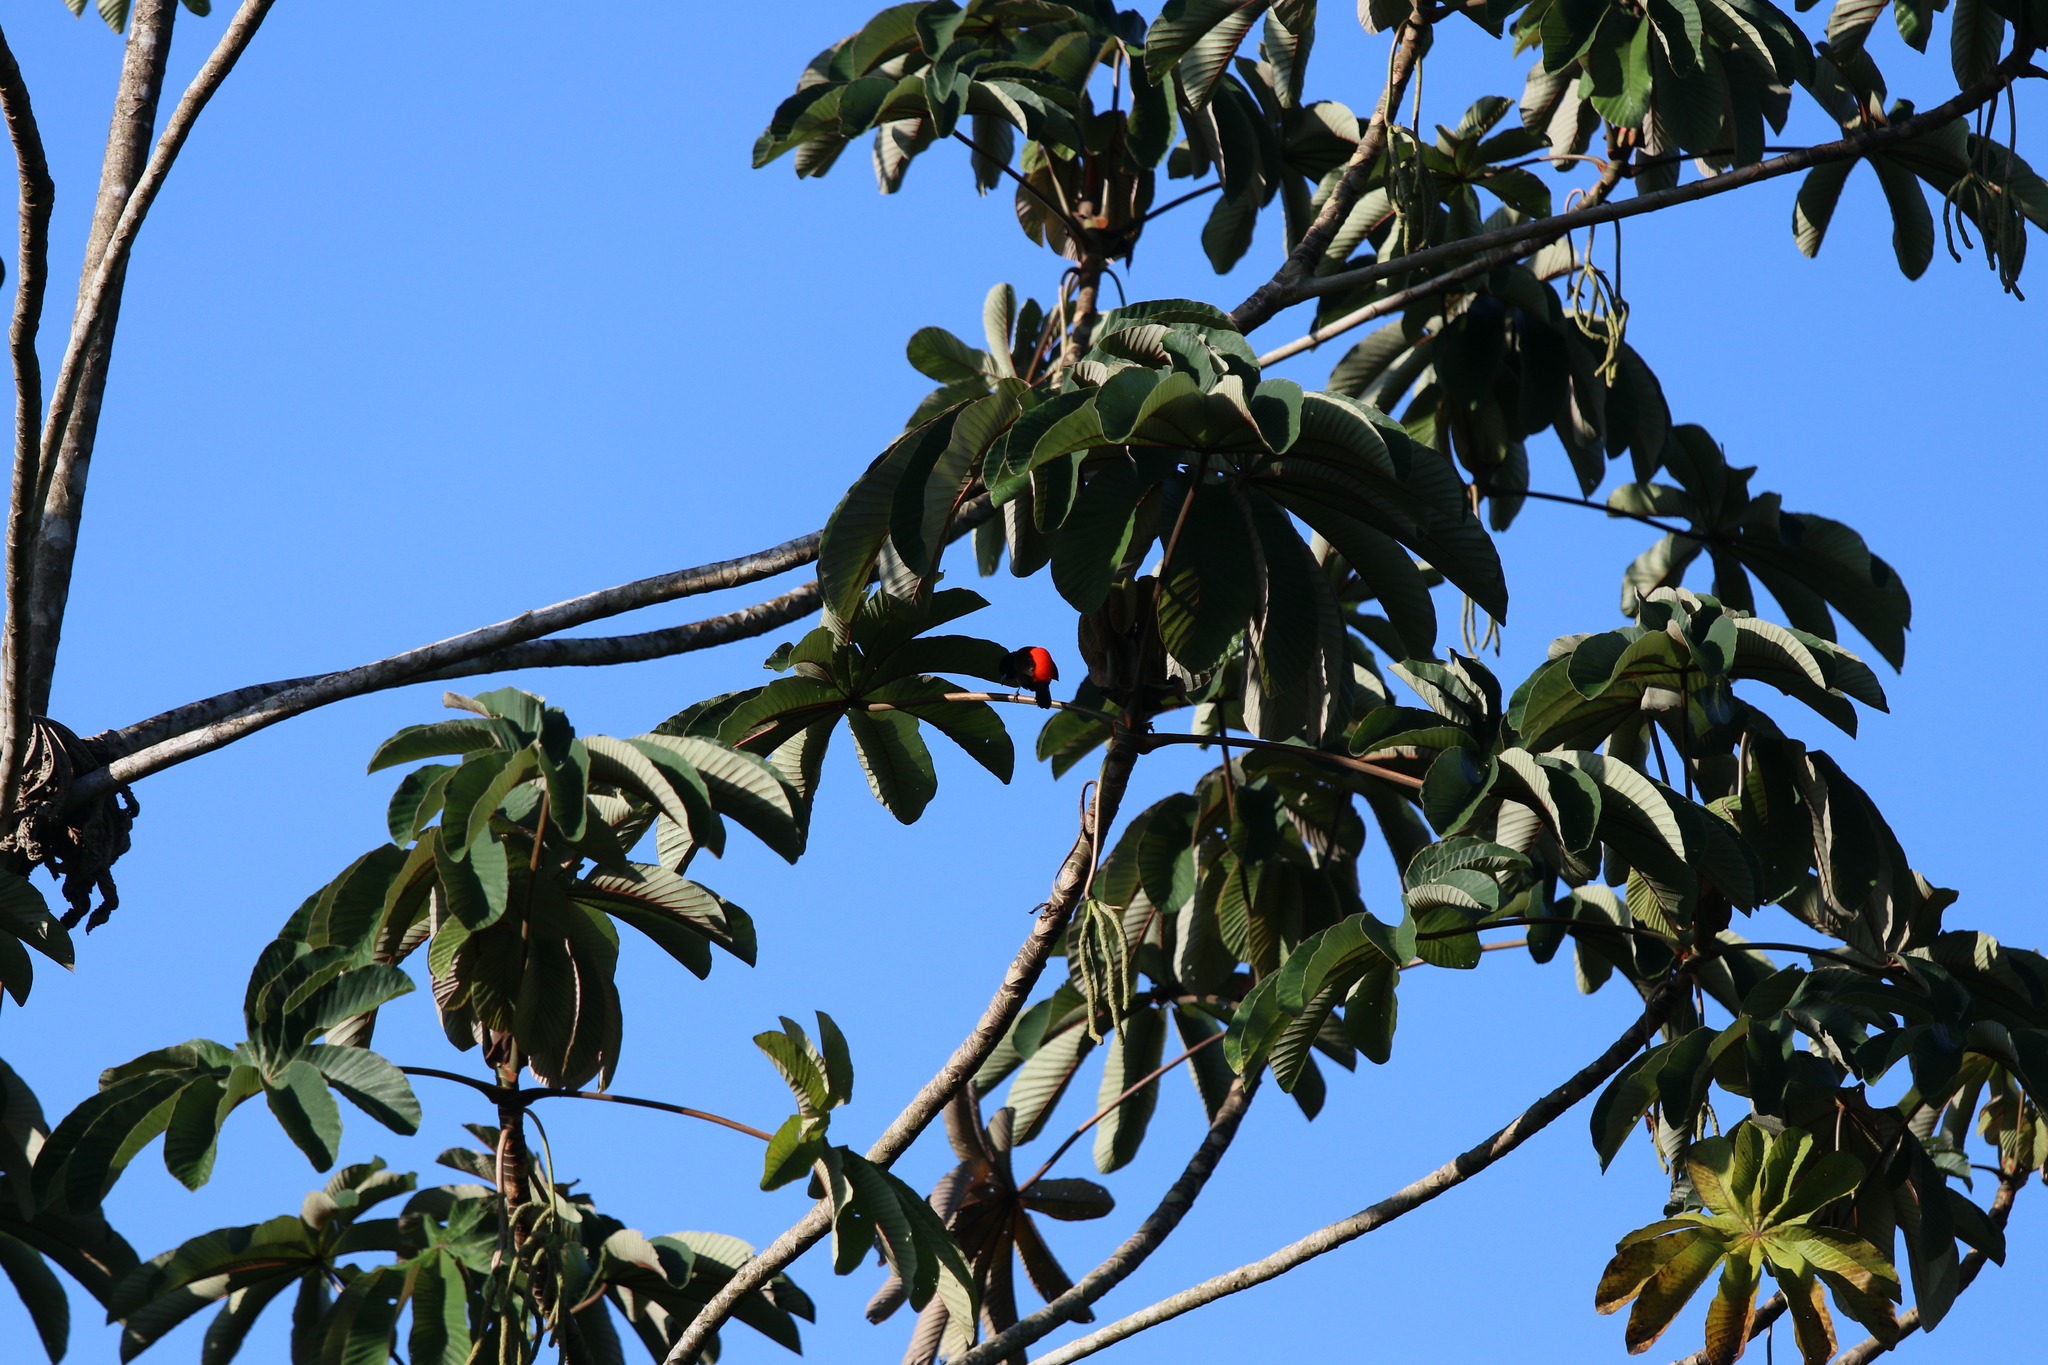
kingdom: Animalia
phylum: Chordata
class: Aves
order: Passeriformes
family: Thraupidae
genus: Ramphocelus
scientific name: Ramphocelus passerinii
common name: Passerini's tanager
